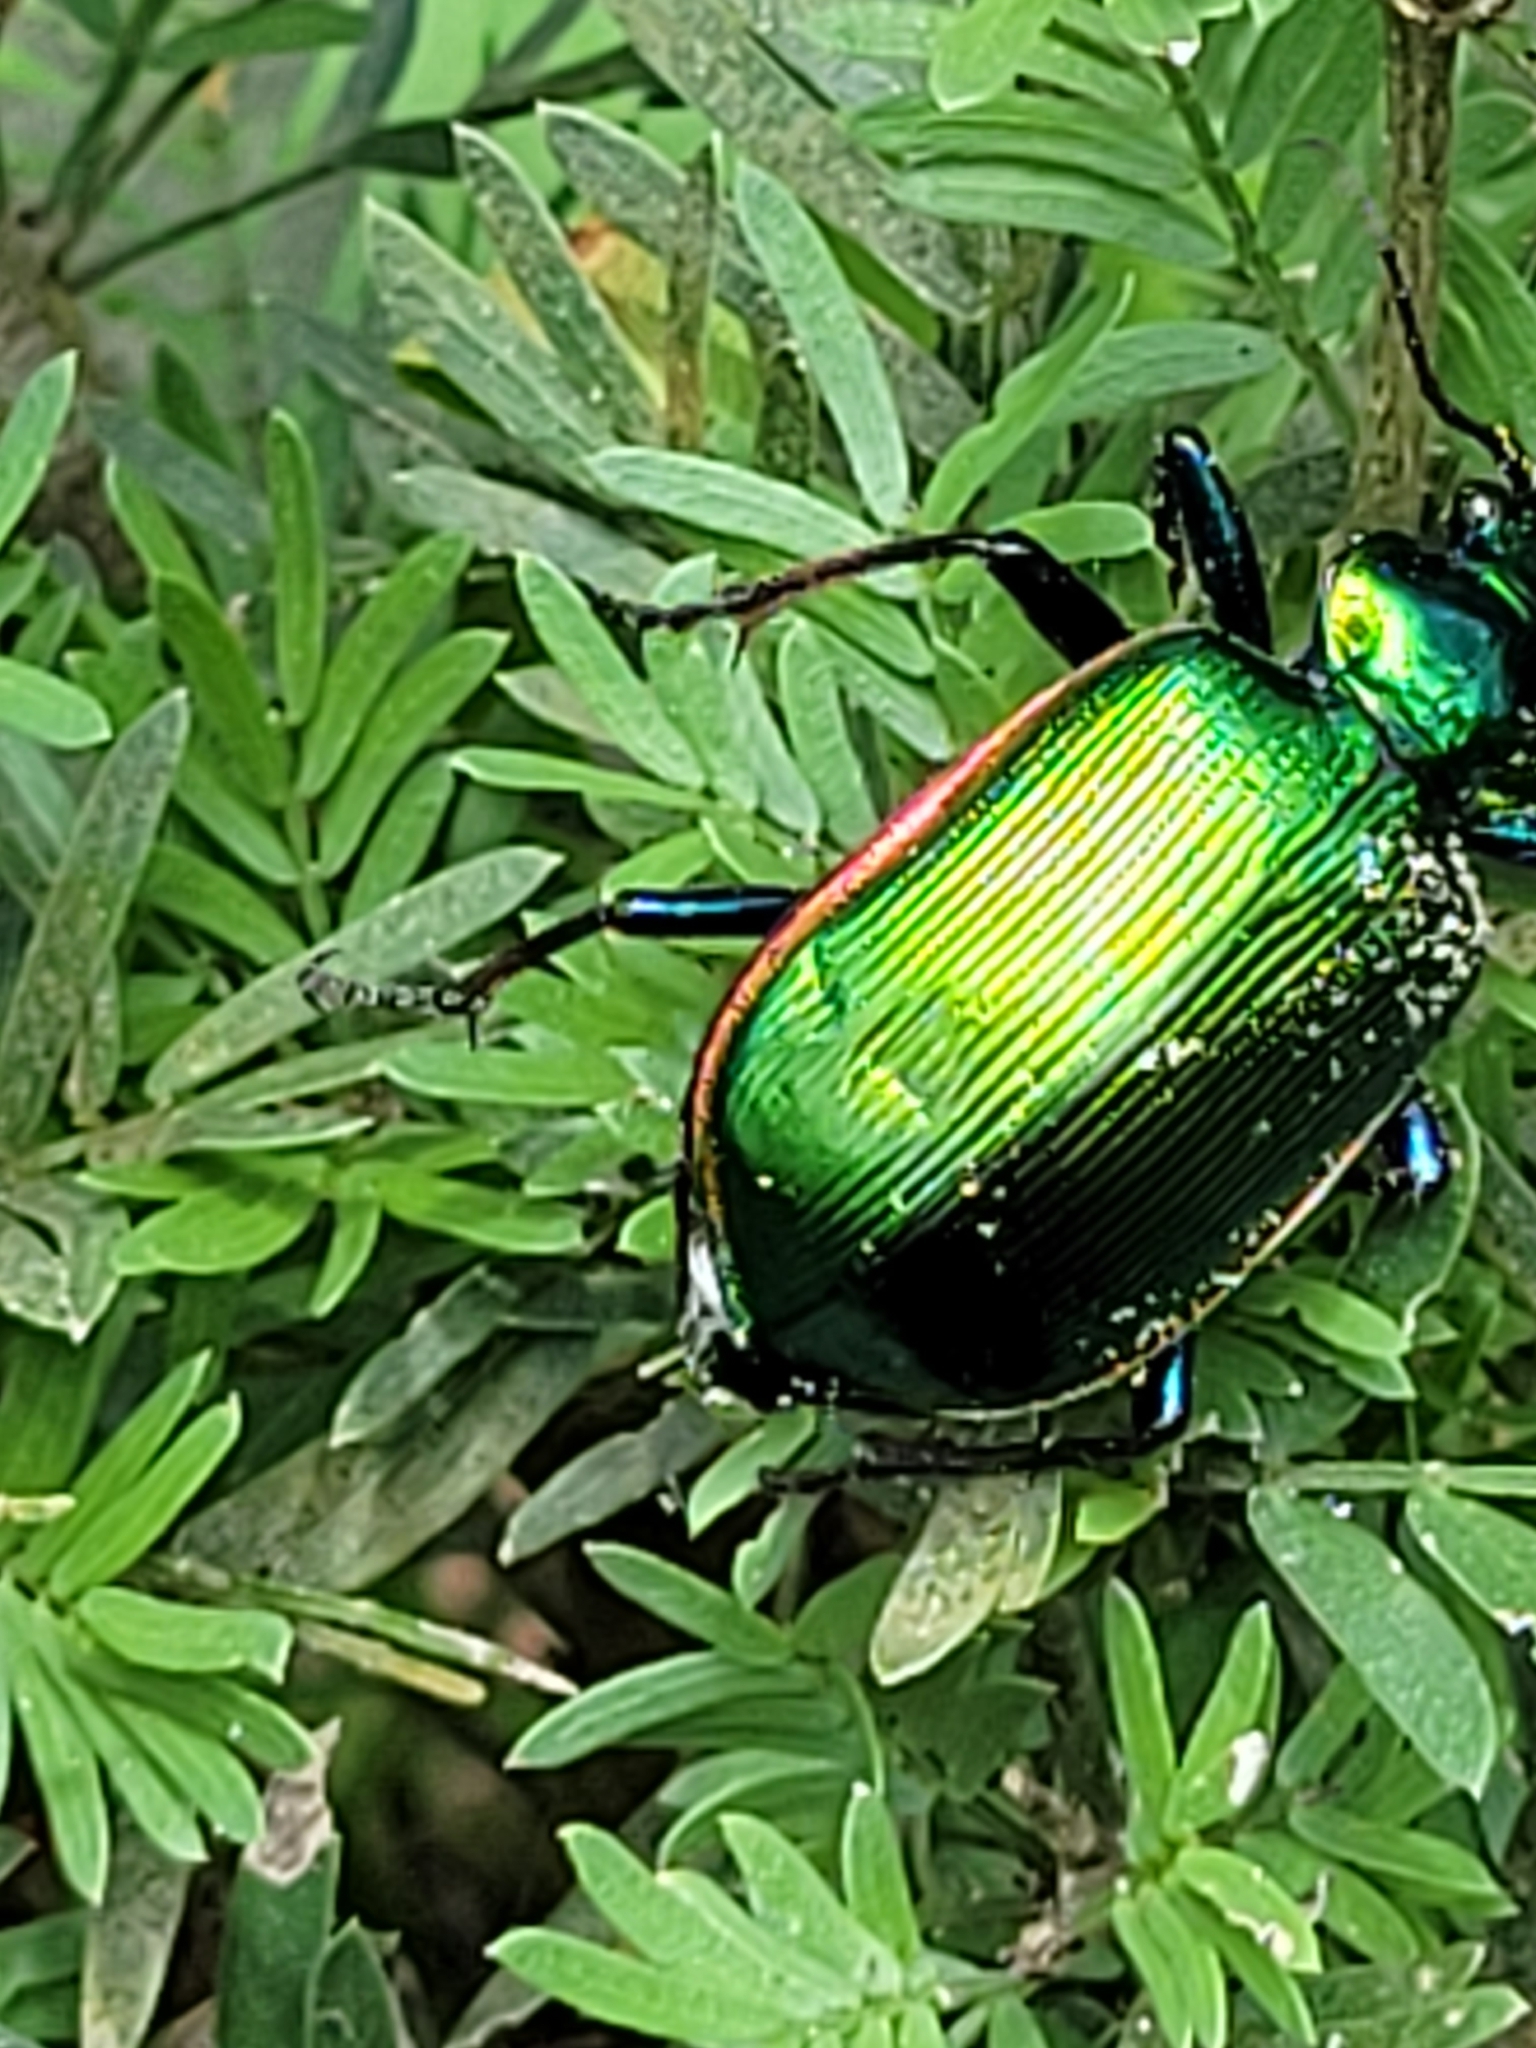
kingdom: Animalia
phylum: Arthropoda
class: Insecta
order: Coleoptera
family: Carabidae
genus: Calosoma
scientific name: Calosoma aurocinctum
